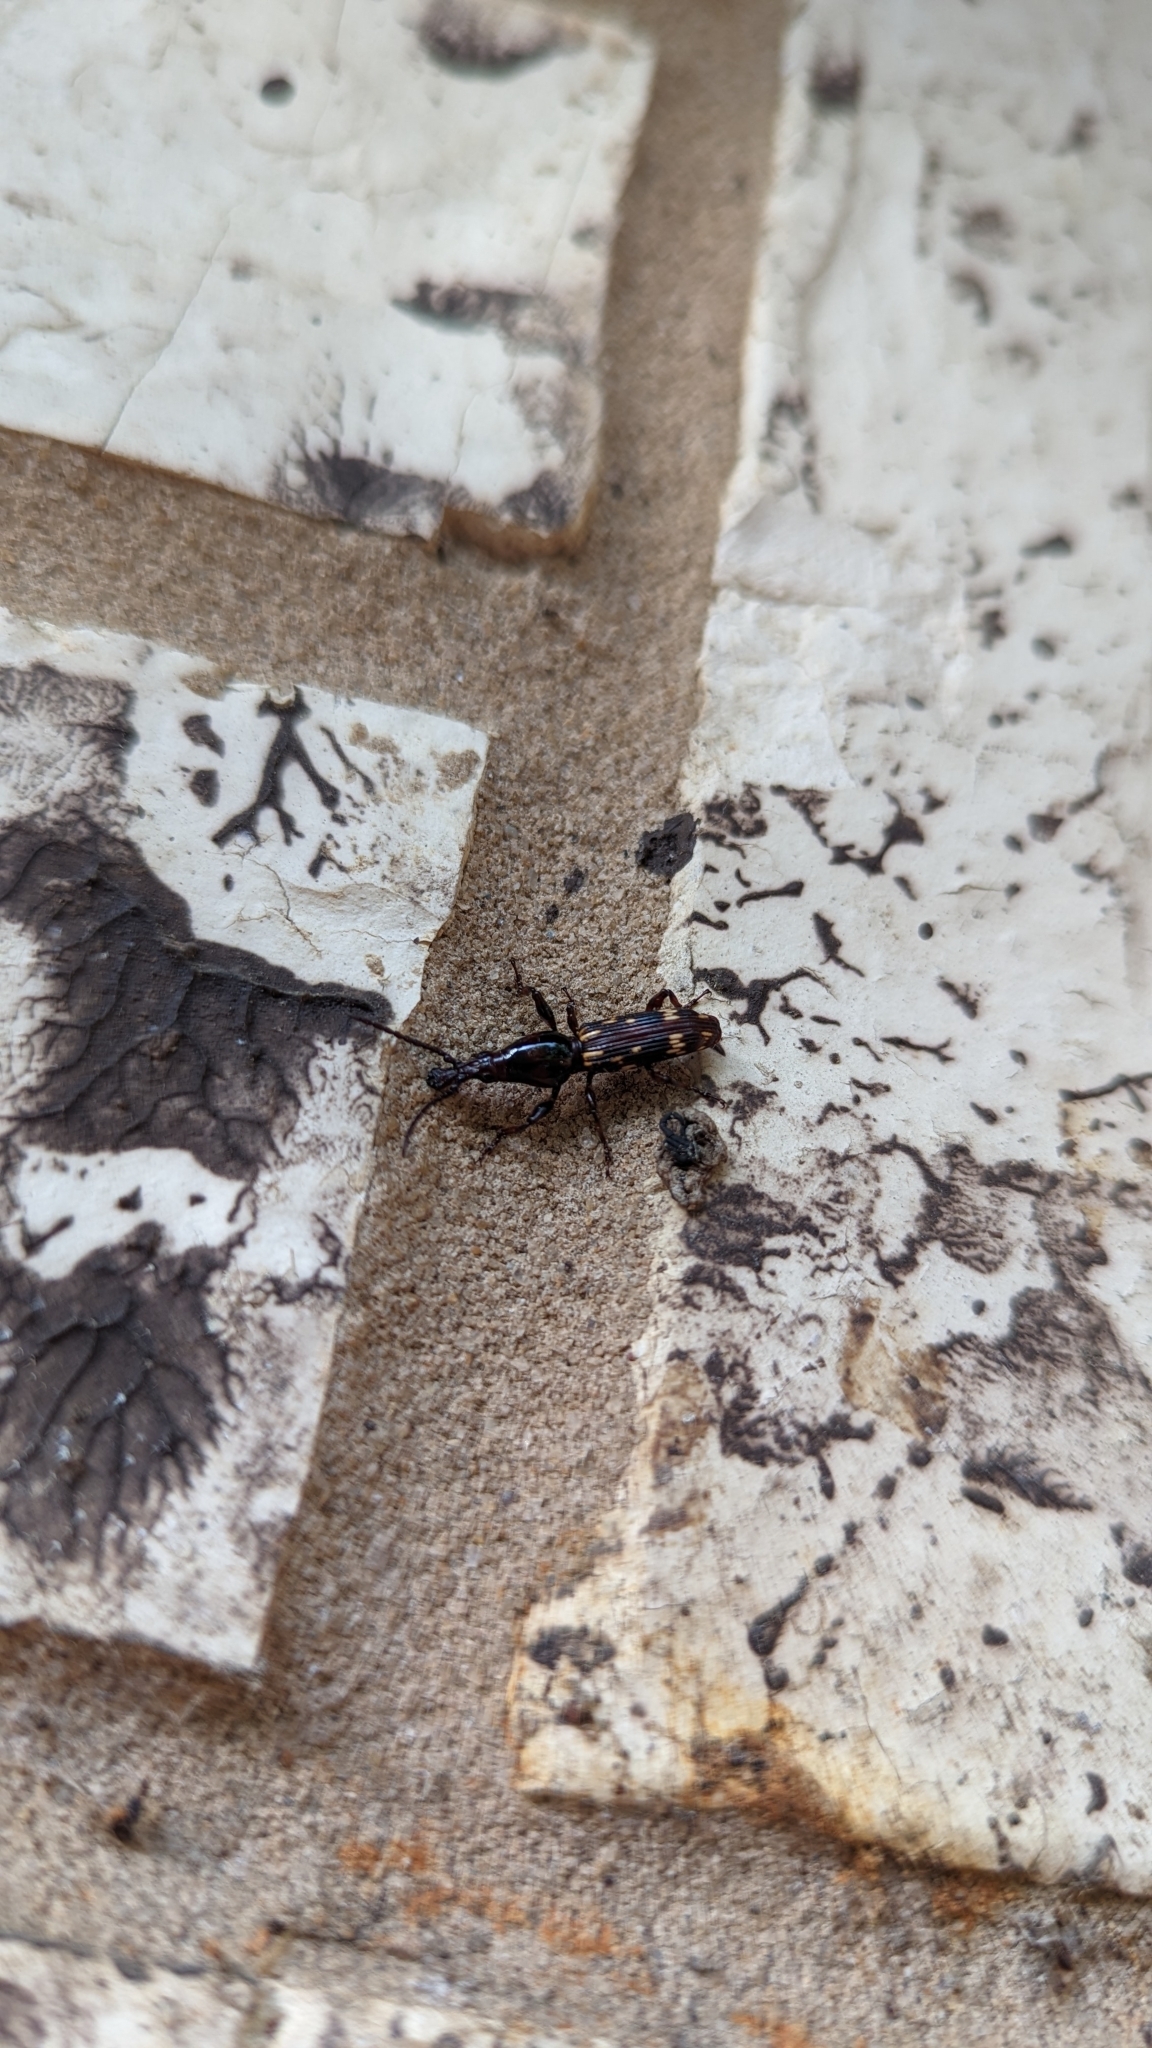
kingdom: Animalia
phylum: Arthropoda
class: Insecta
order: Coleoptera
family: Brentidae
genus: Arrenodes
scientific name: Arrenodes minutus
